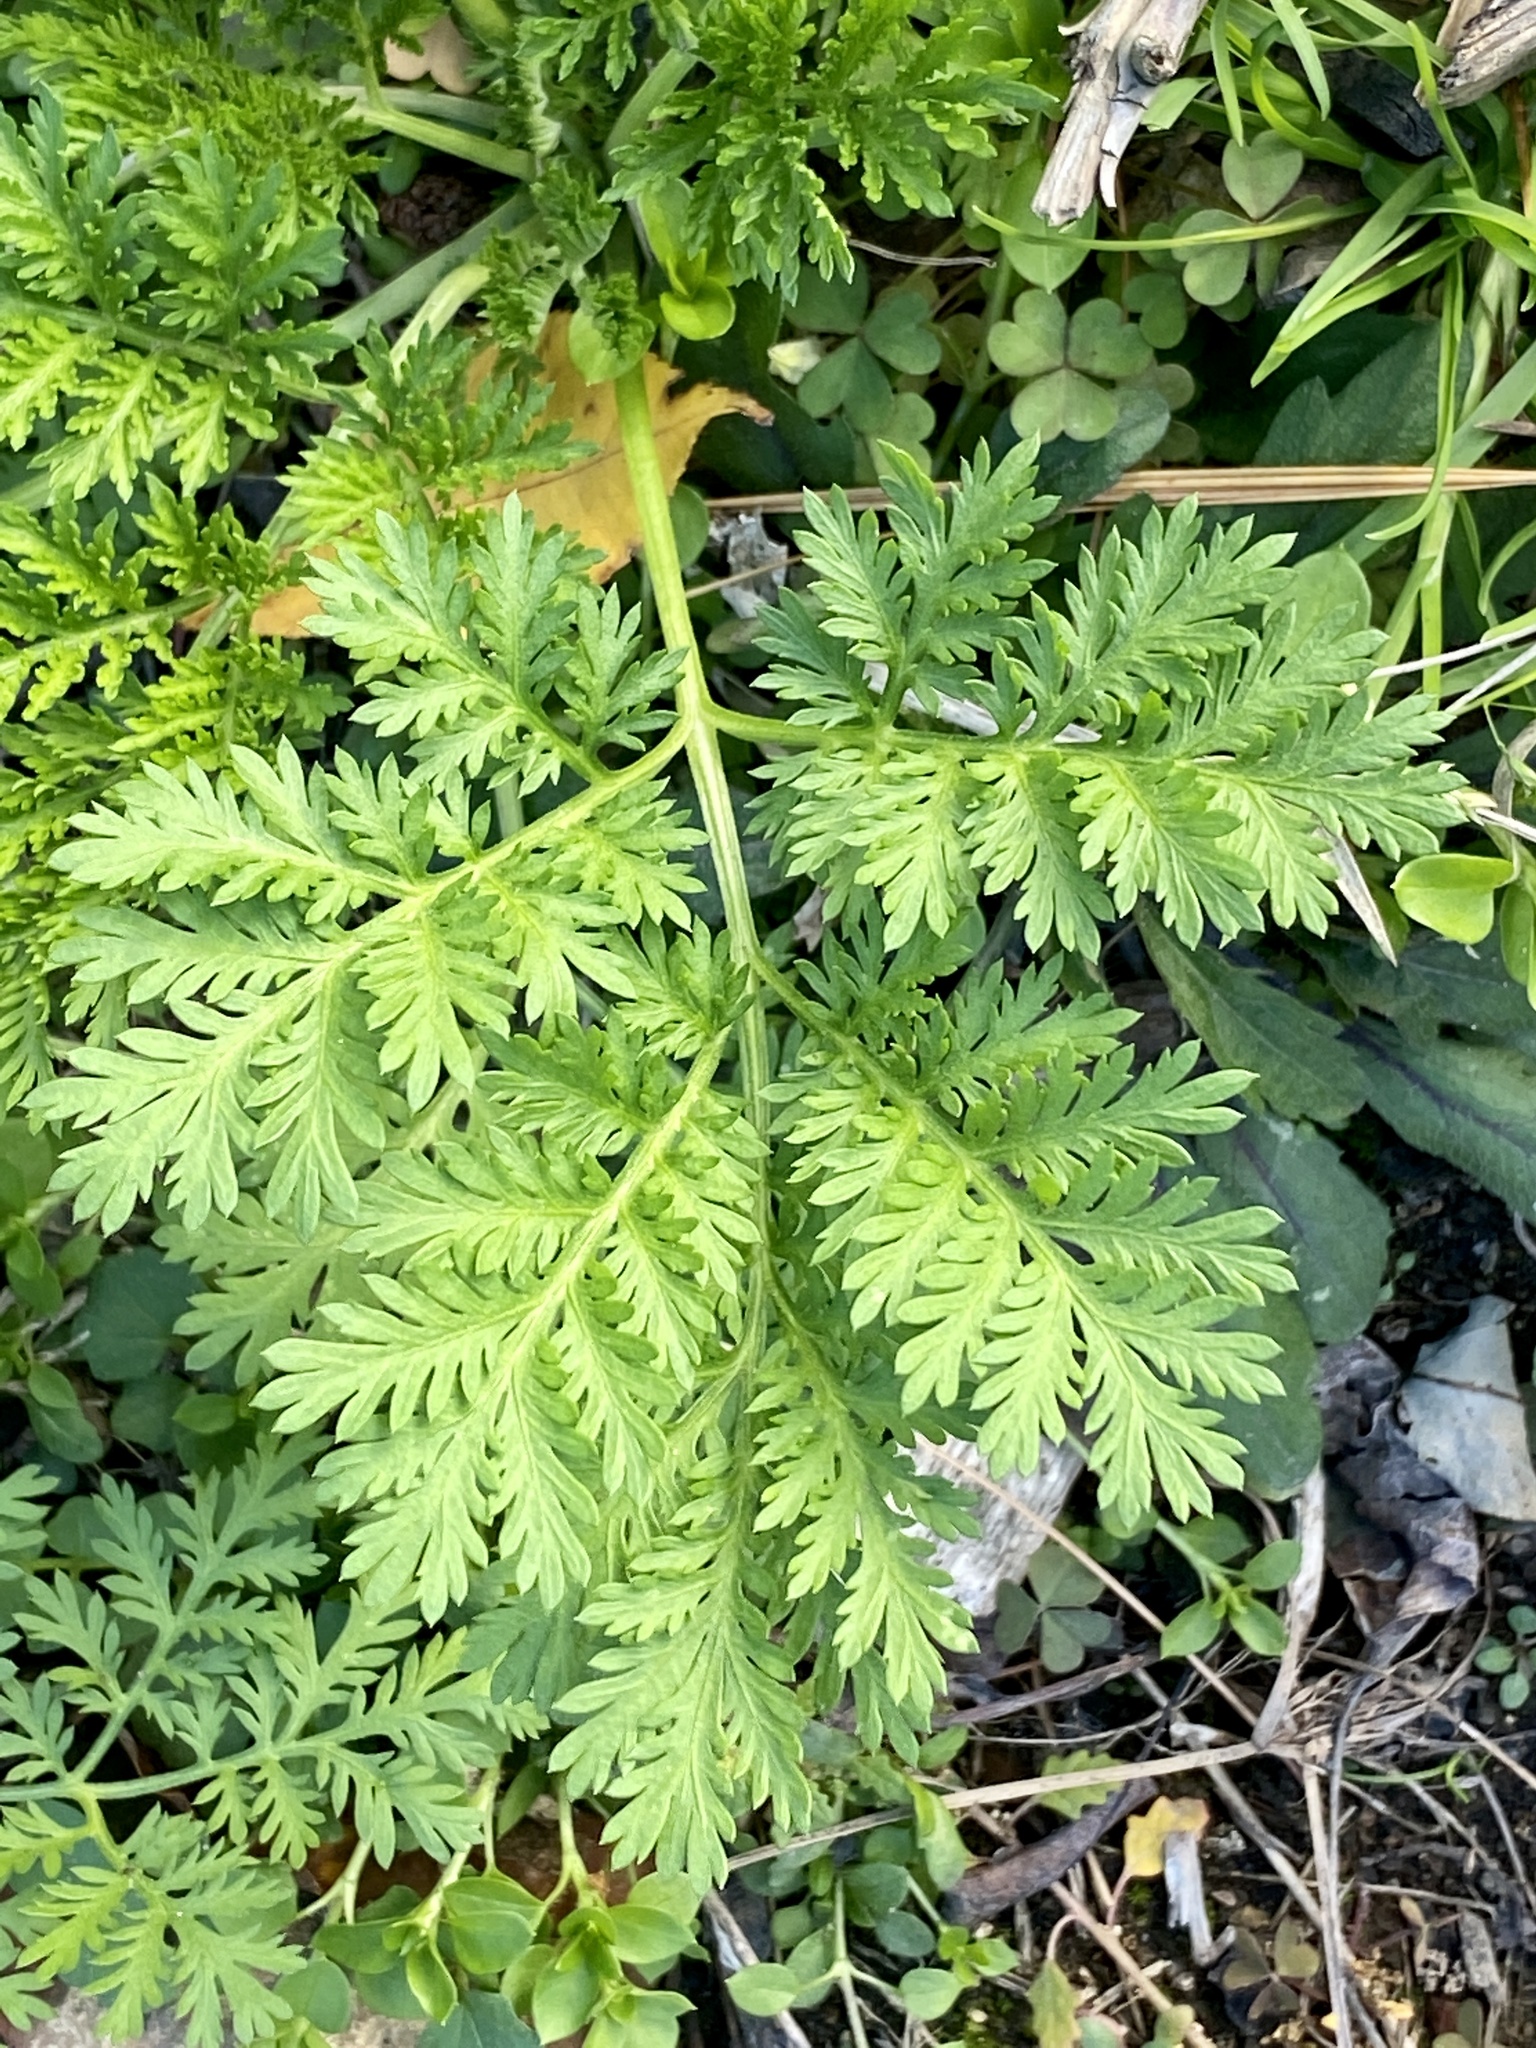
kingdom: Plantae
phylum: Tracheophyta
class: Magnoliopsida
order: Asterales
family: Asteraceae
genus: Artemisia
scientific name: Artemisia annua
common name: Sweet sagewort
